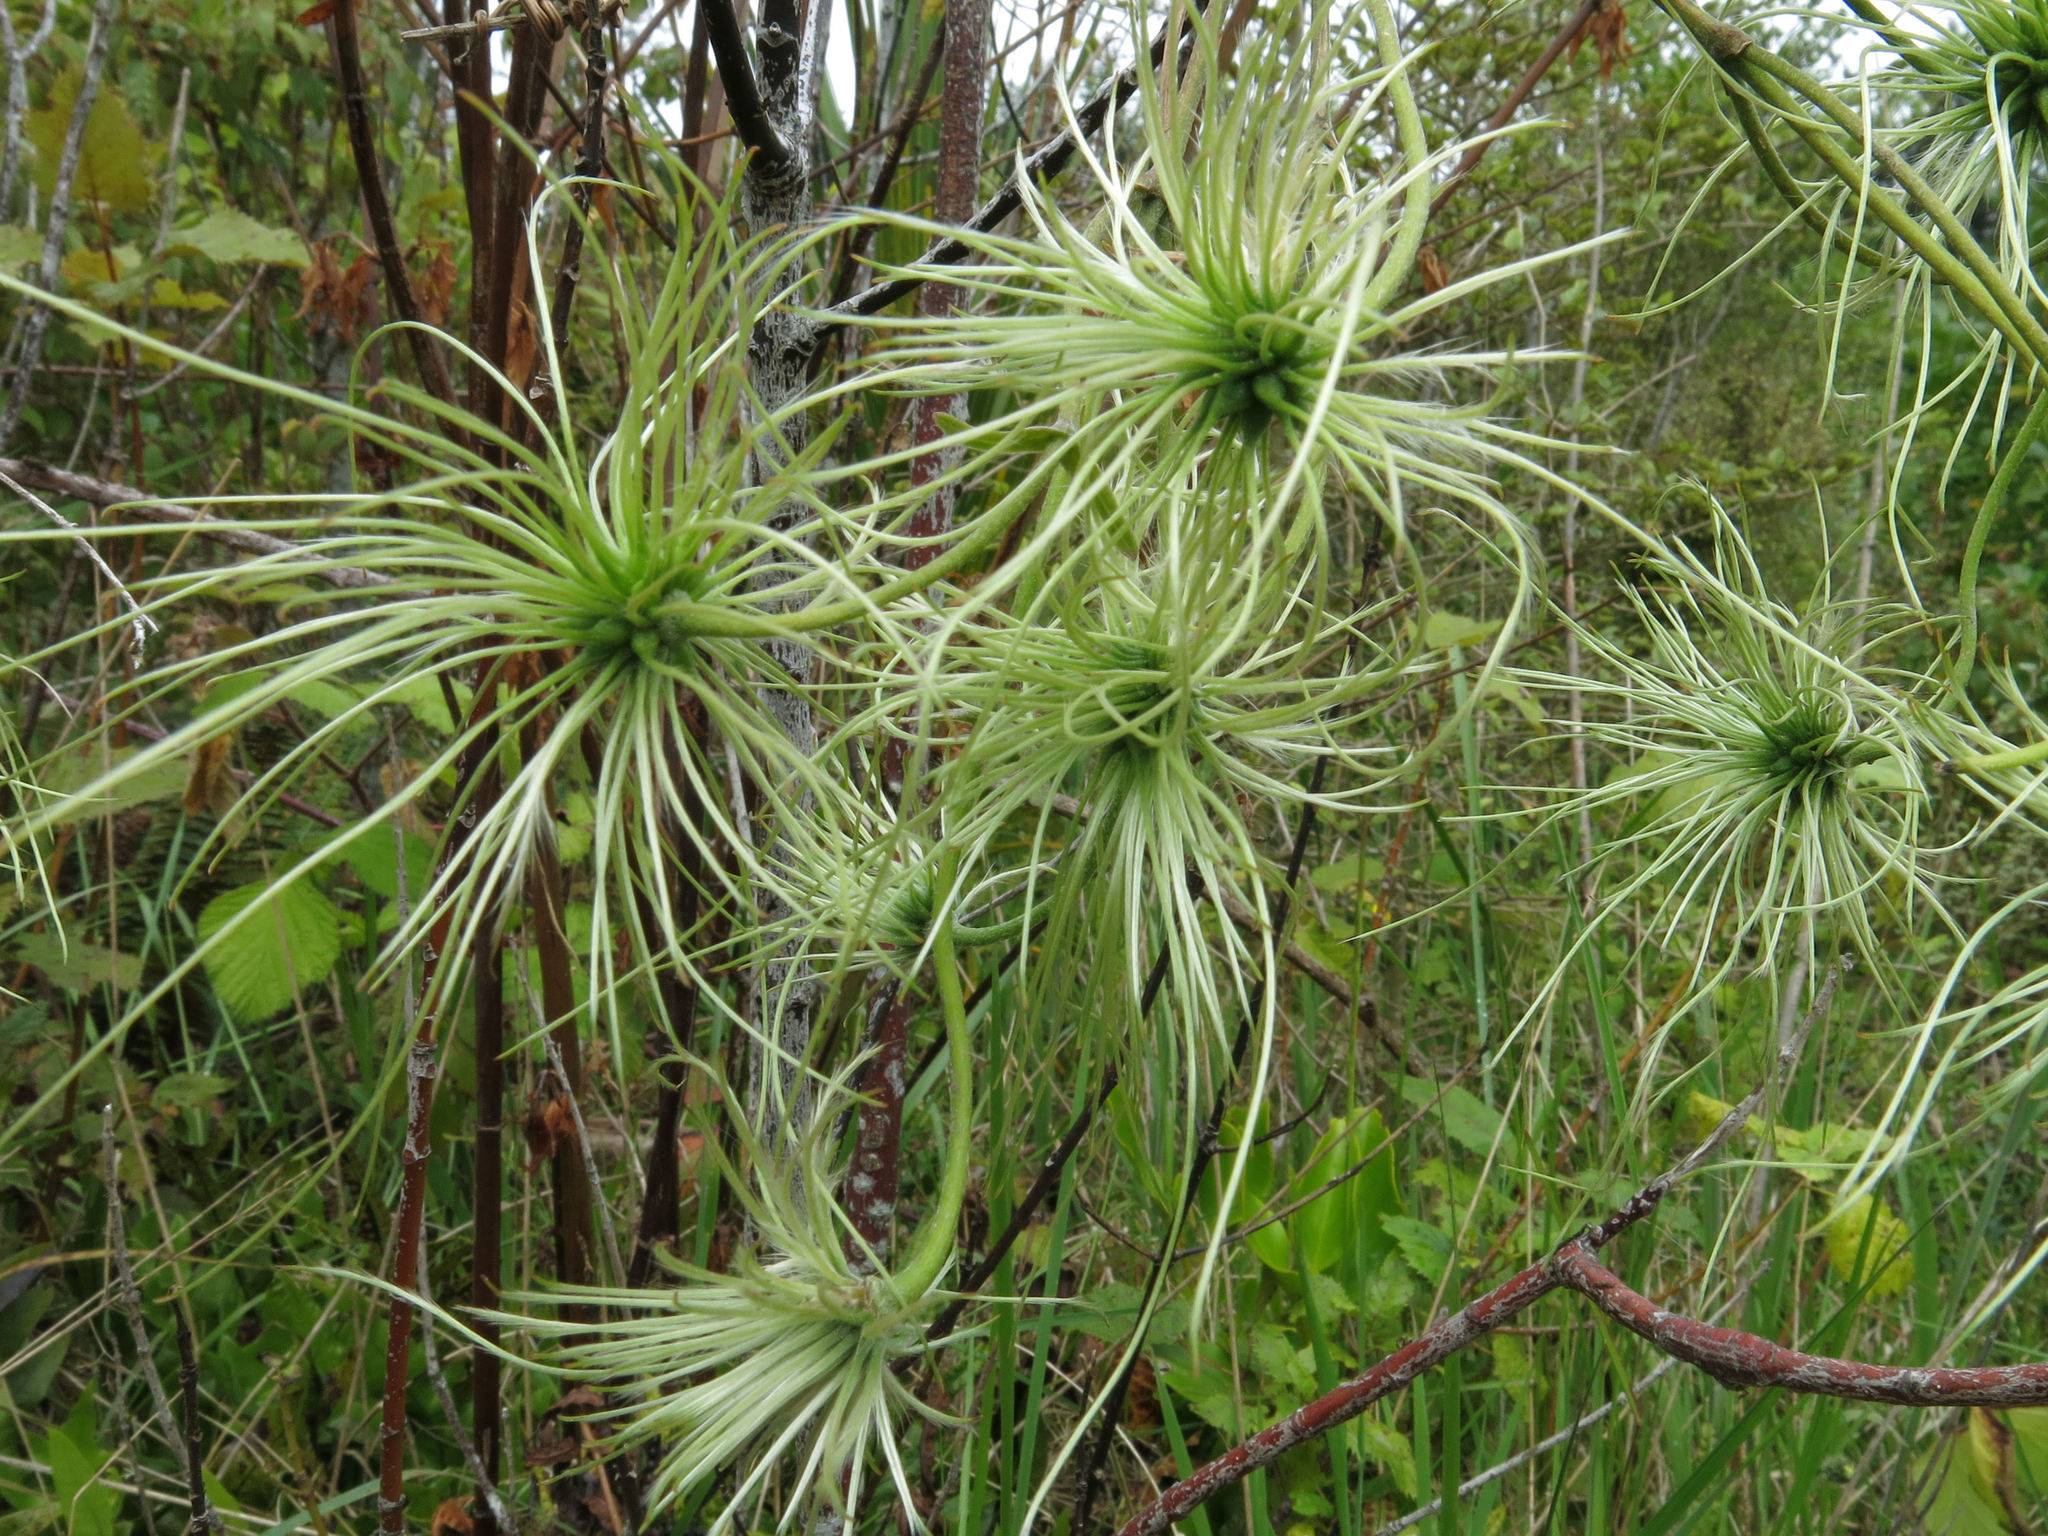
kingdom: Plantae
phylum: Tracheophyta
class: Magnoliopsida
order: Ranunculales
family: Ranunculaceae
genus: Clematis
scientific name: Clematis paniculata
